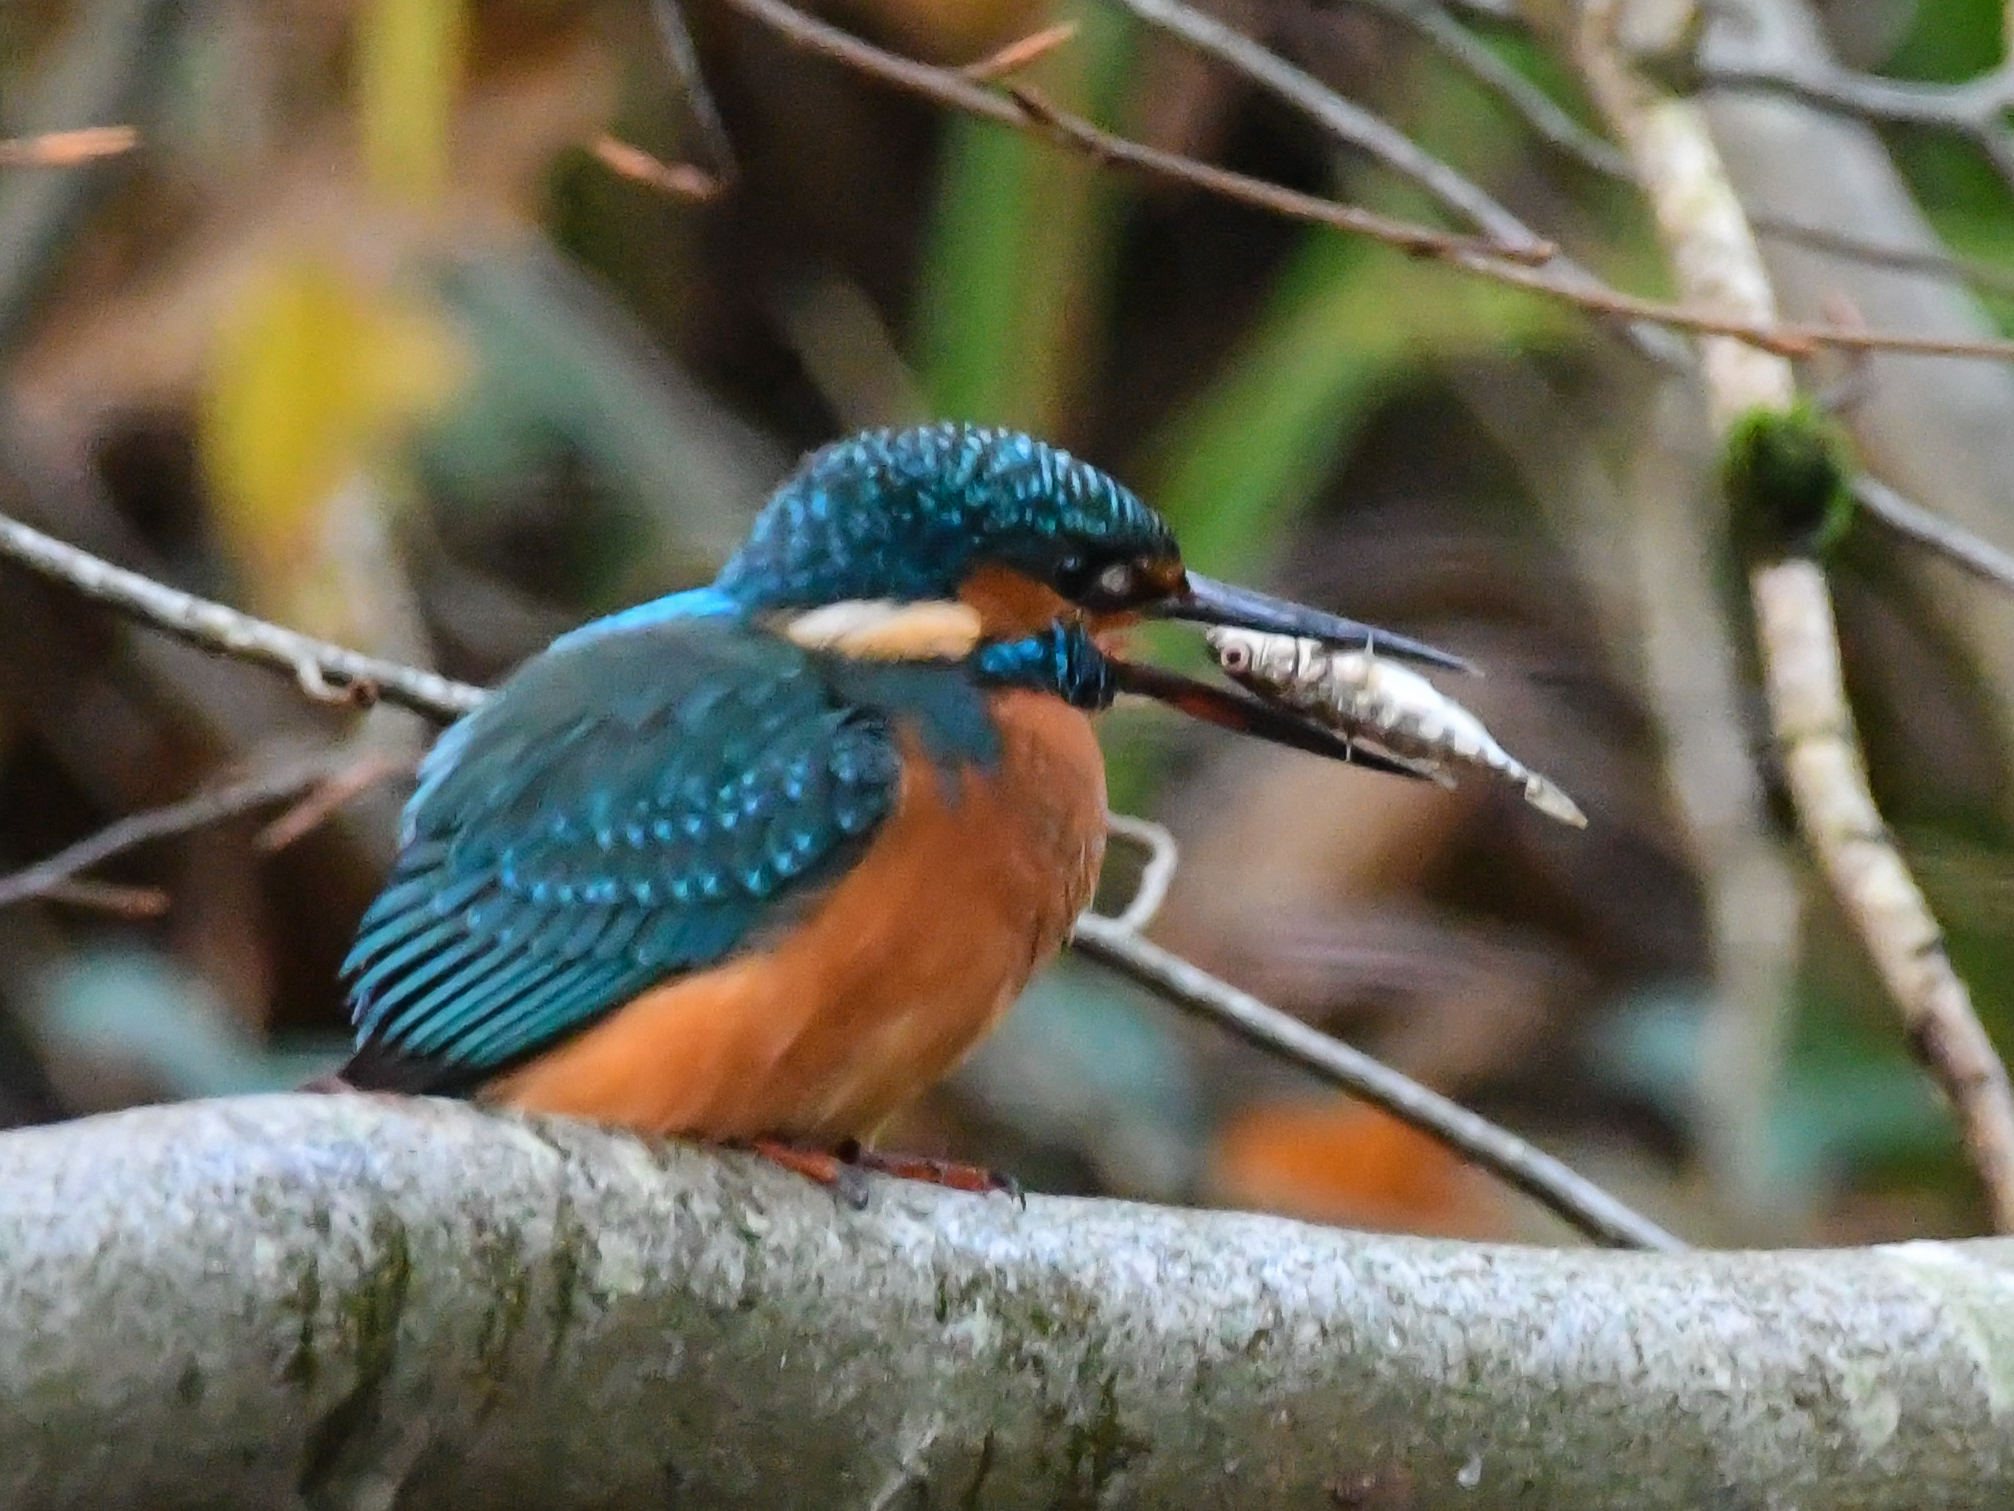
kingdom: Animalia
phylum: Chordata
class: Aves
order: Coraciiformes
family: Alcedinidae
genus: Alcedo
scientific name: Alcedo atthis
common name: Common kingfisher
